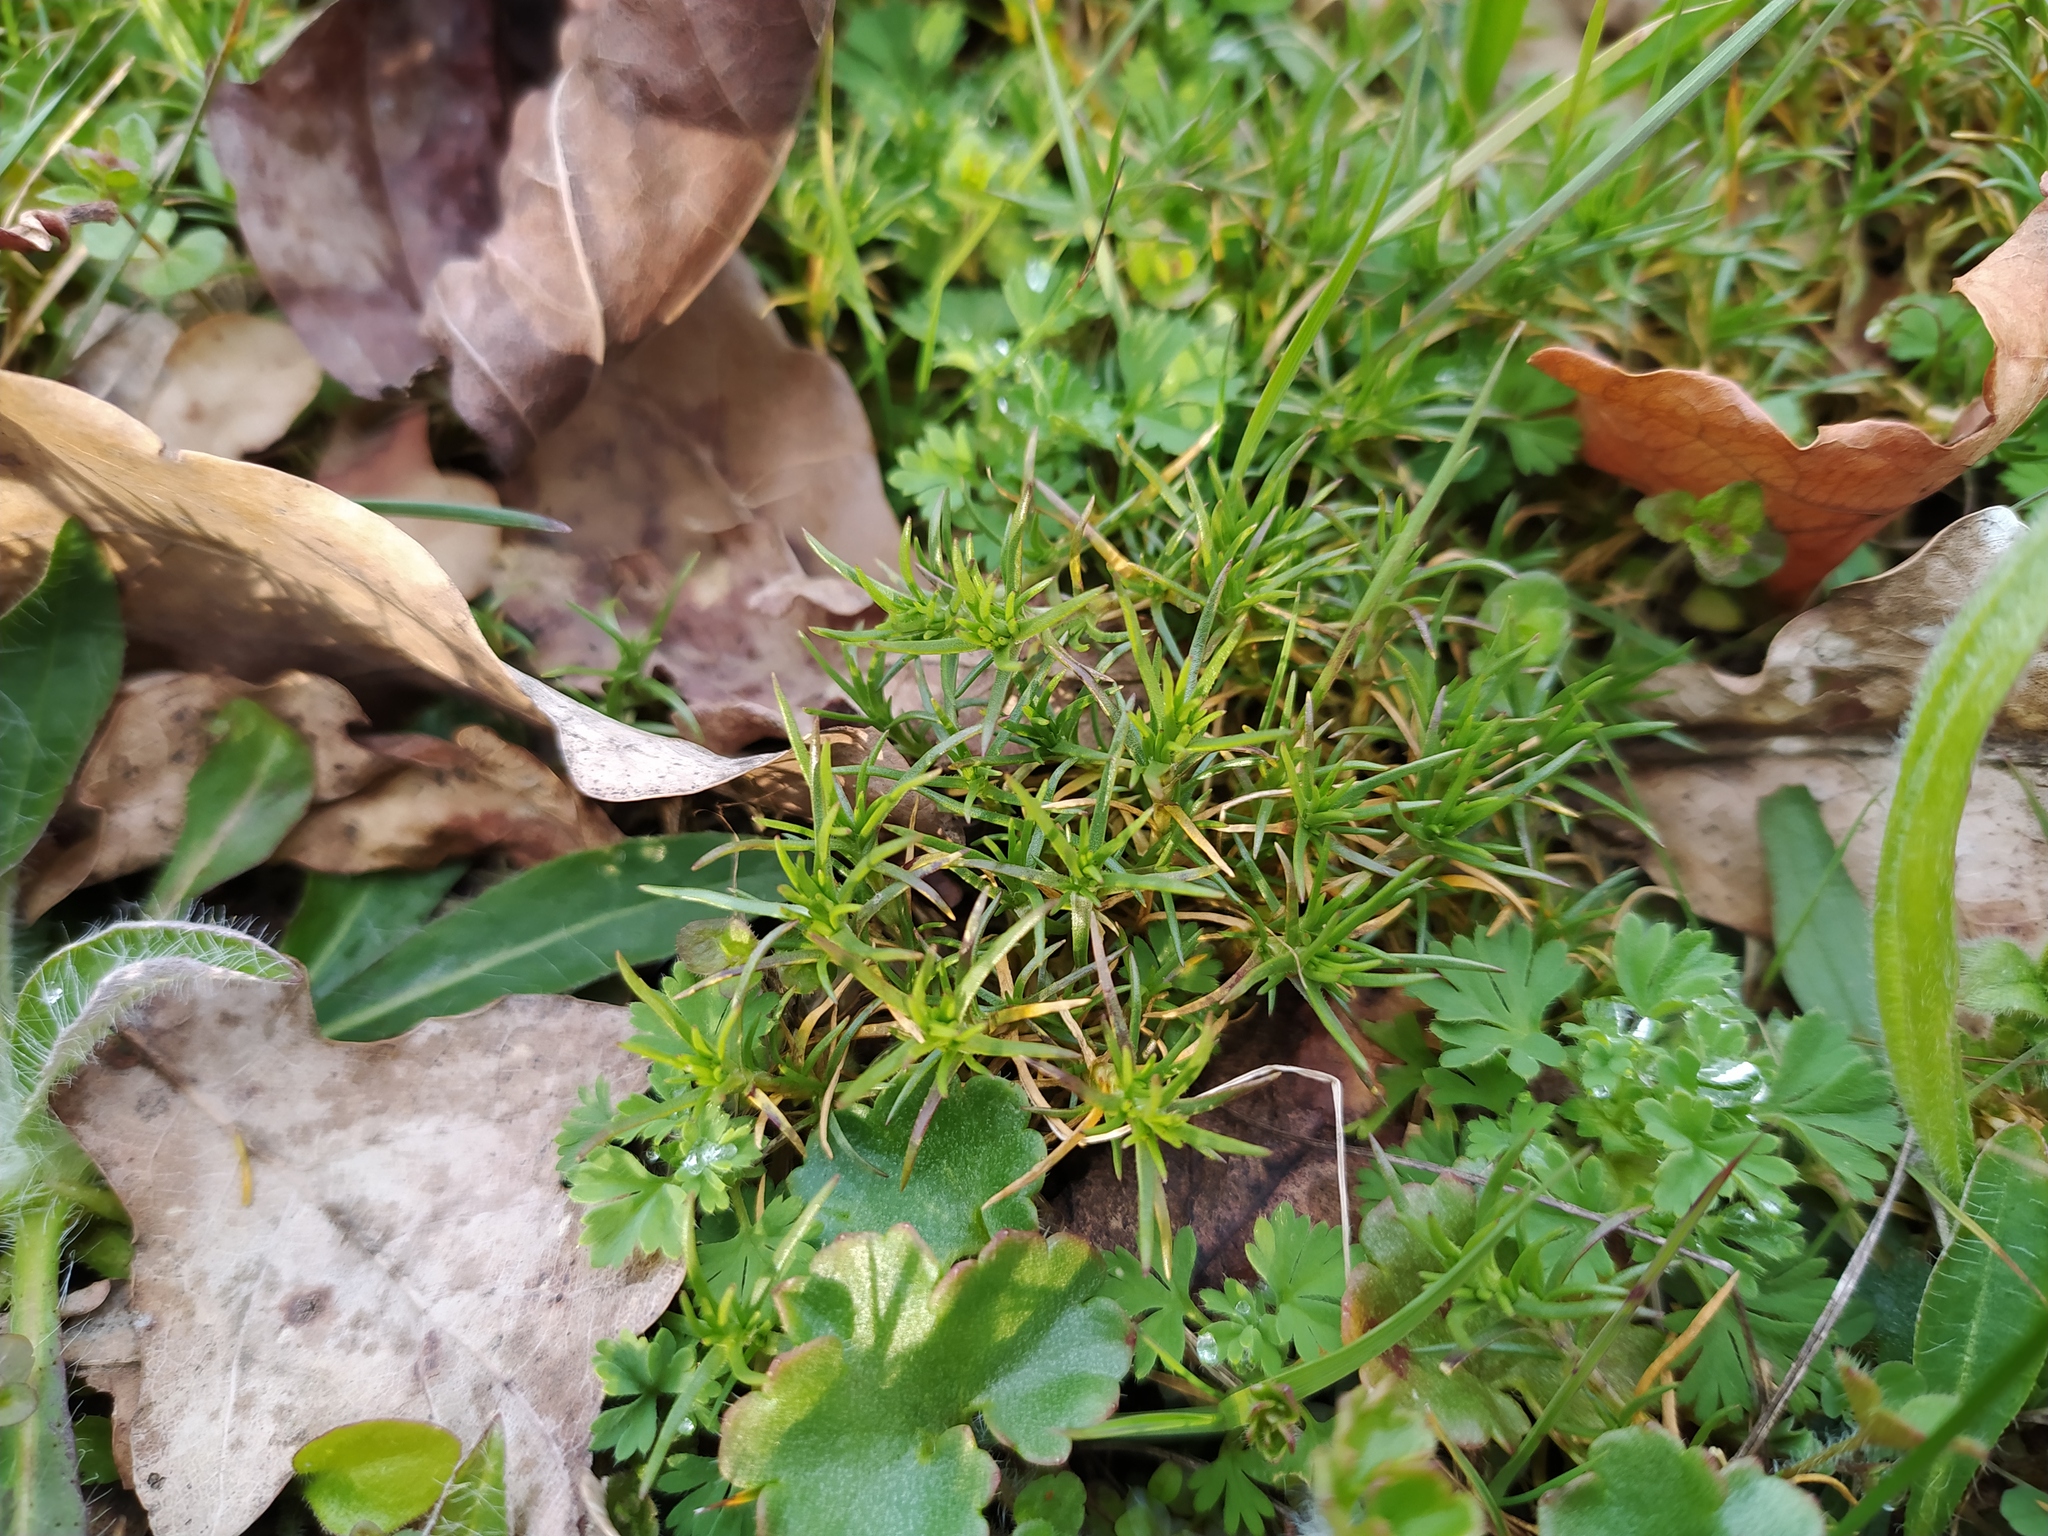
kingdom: Plantae
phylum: Tracheophyta
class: Magnoliopsida
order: Caryophyllales
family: Caryophyllaceae
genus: Scleranthus
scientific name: Scleranthus annuus
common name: Annual knawel
